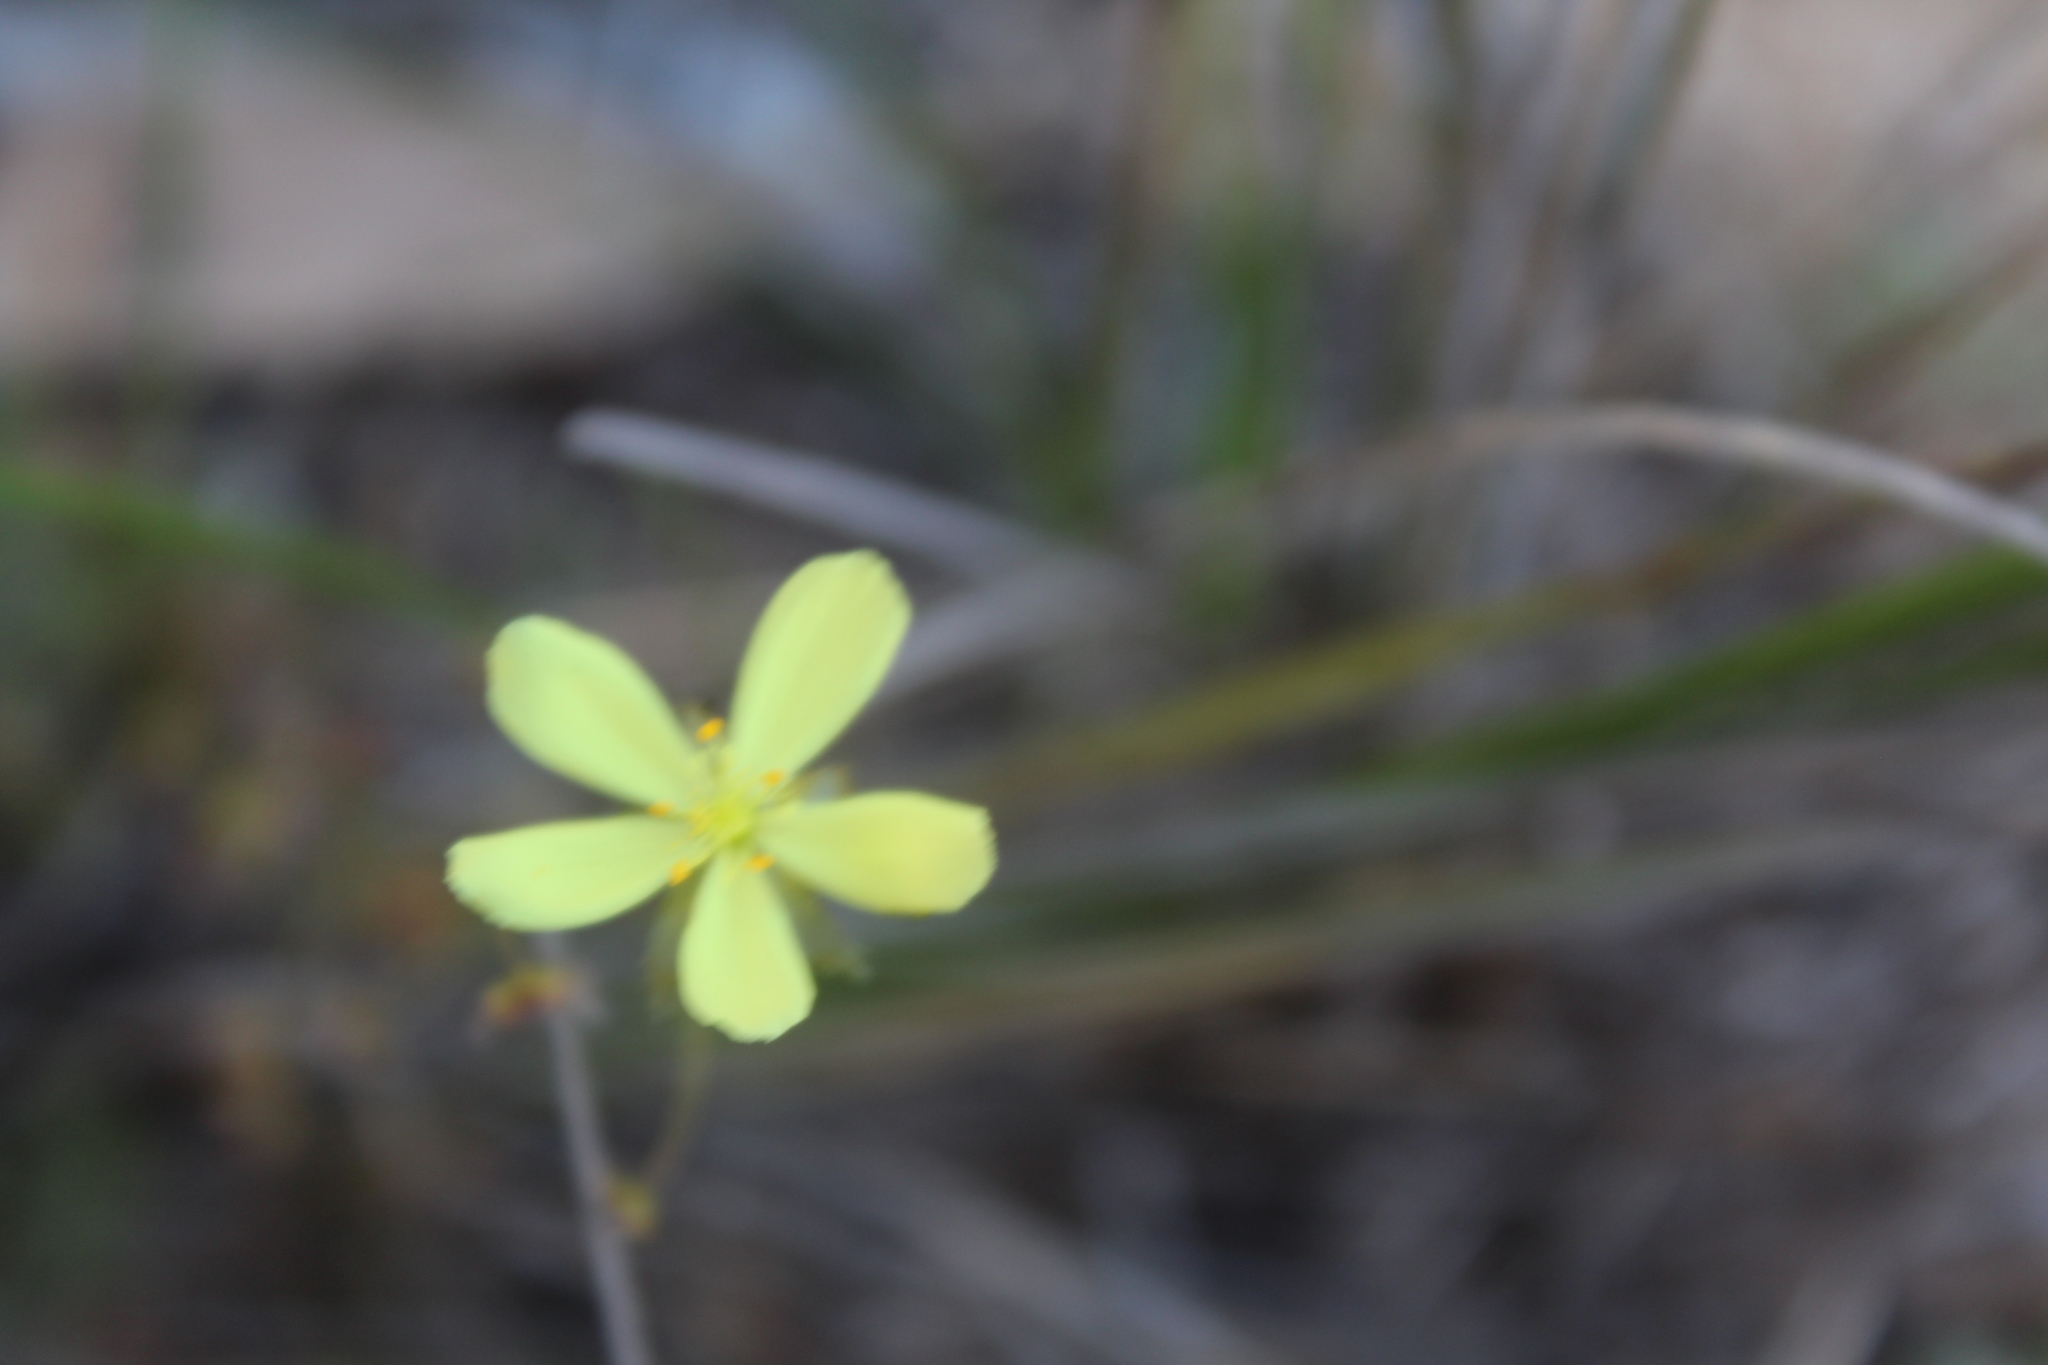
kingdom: Plantae
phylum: Tracheophyta
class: Magnoliopsida
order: Caryophyllales
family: Droseraceae
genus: Drosera
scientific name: Drosera moorei
